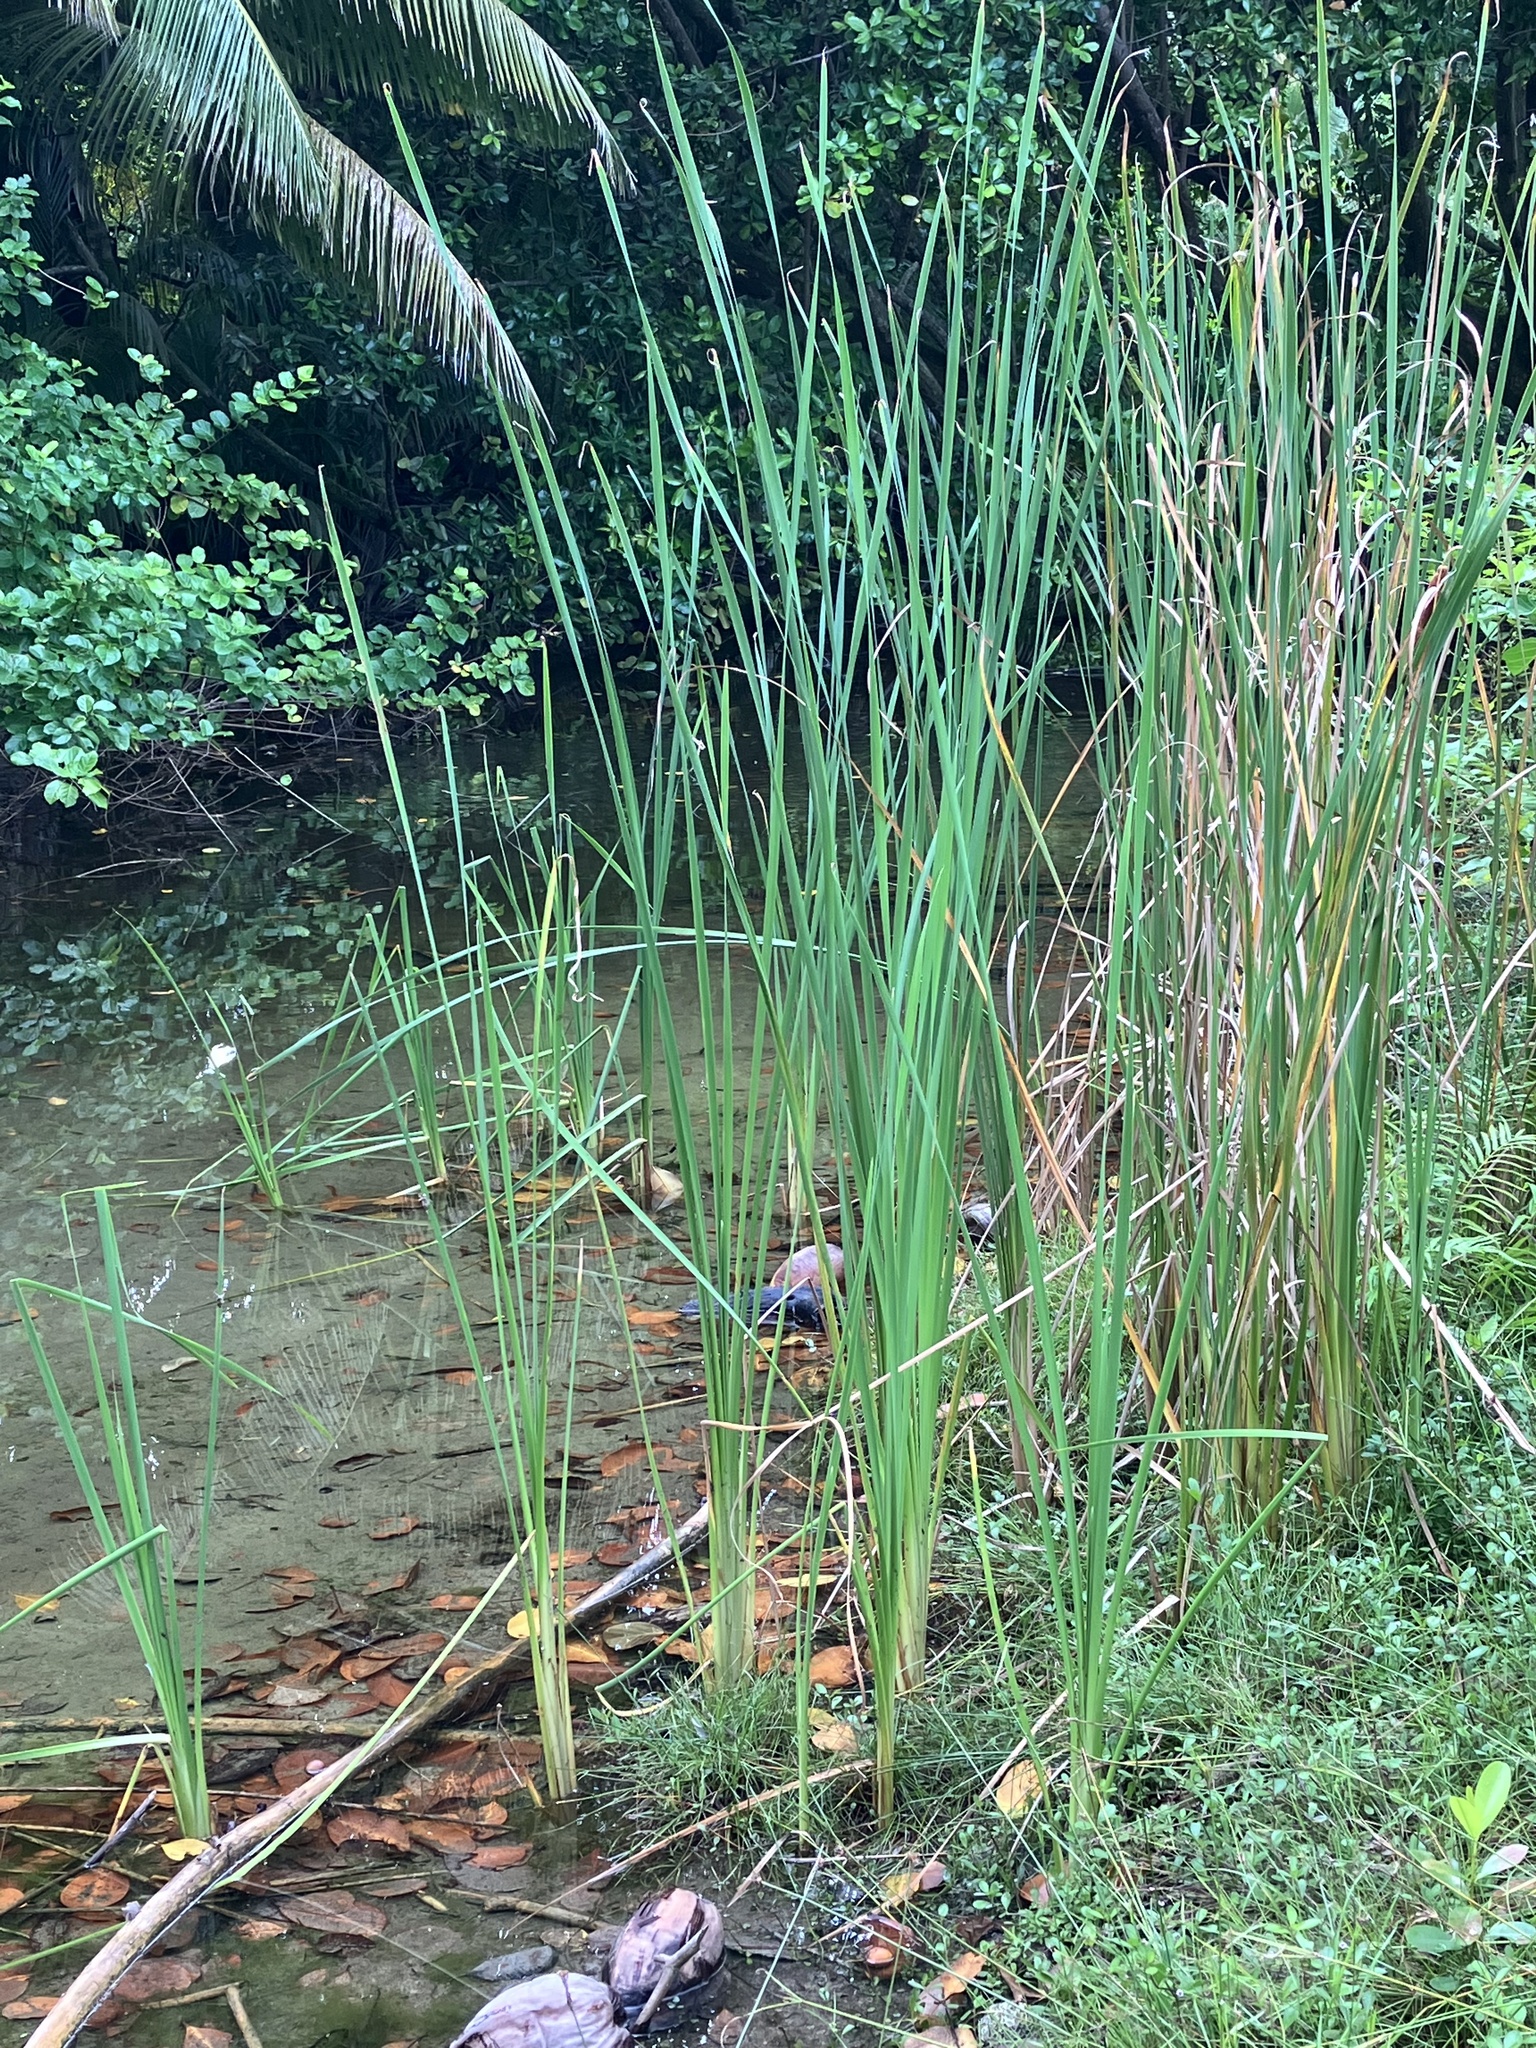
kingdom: Plantae
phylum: Tracheophyta
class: Liliopsida
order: Poales
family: Typhaceae
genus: Typha
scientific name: Typha domingensis
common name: Southern cattail
